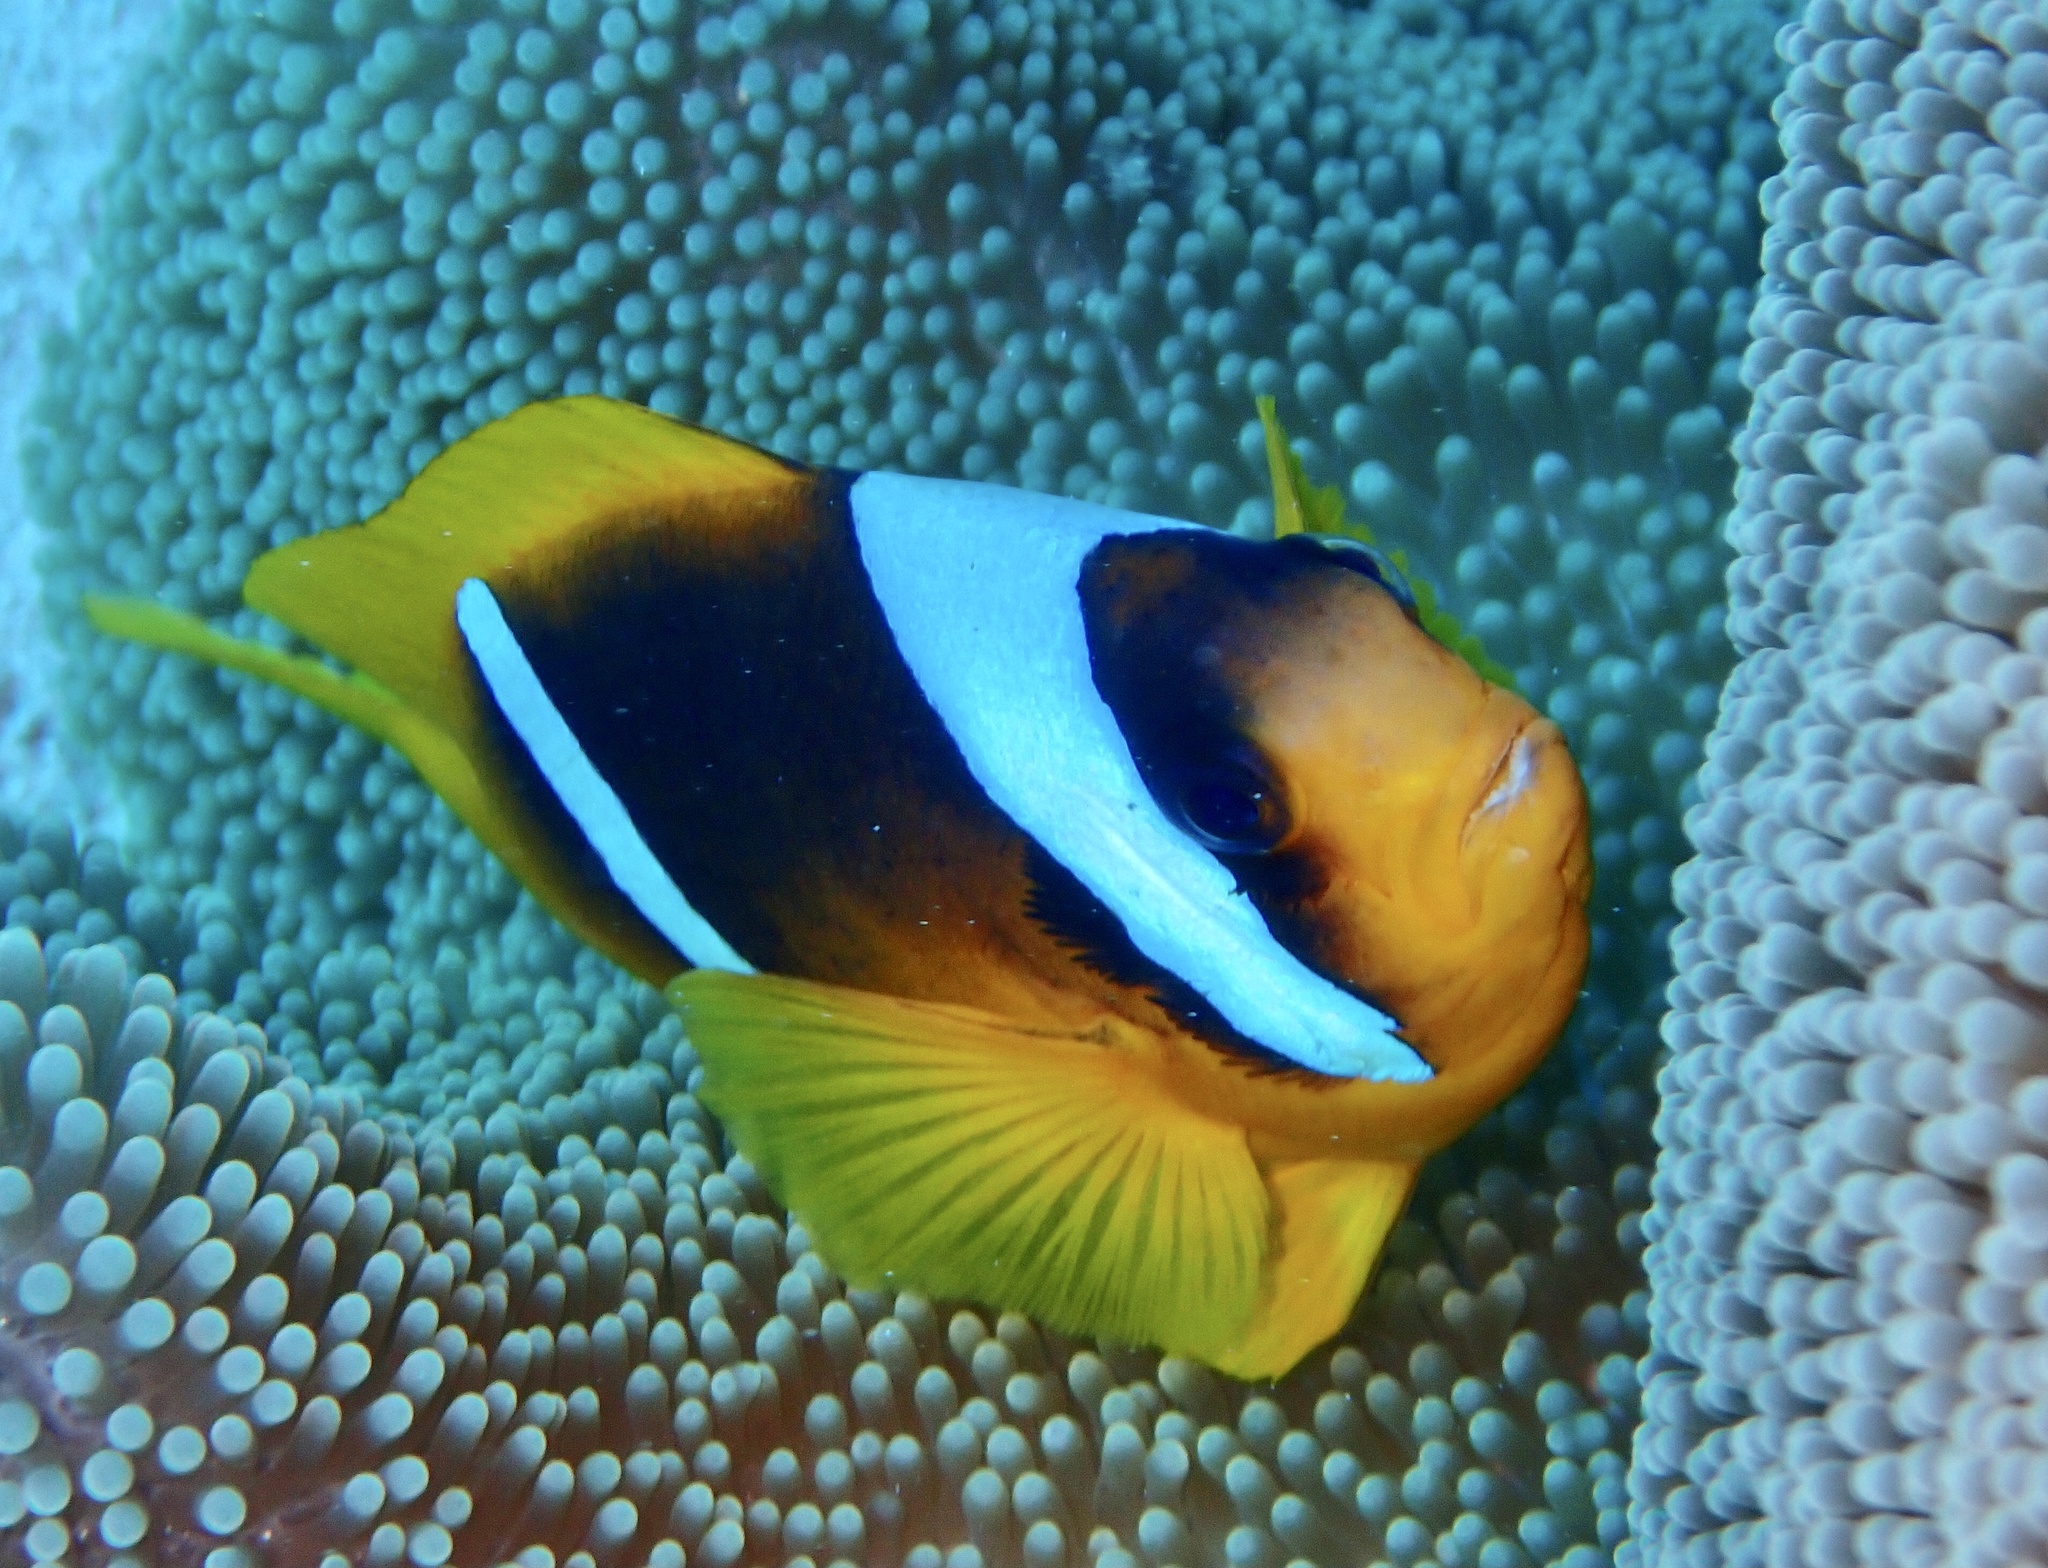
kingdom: Animalia
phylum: Chordata
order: Perciformes
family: Pomacentridae
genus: Amphiprion
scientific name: Amphiprion bicinctus
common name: Two-banded anemonefish
